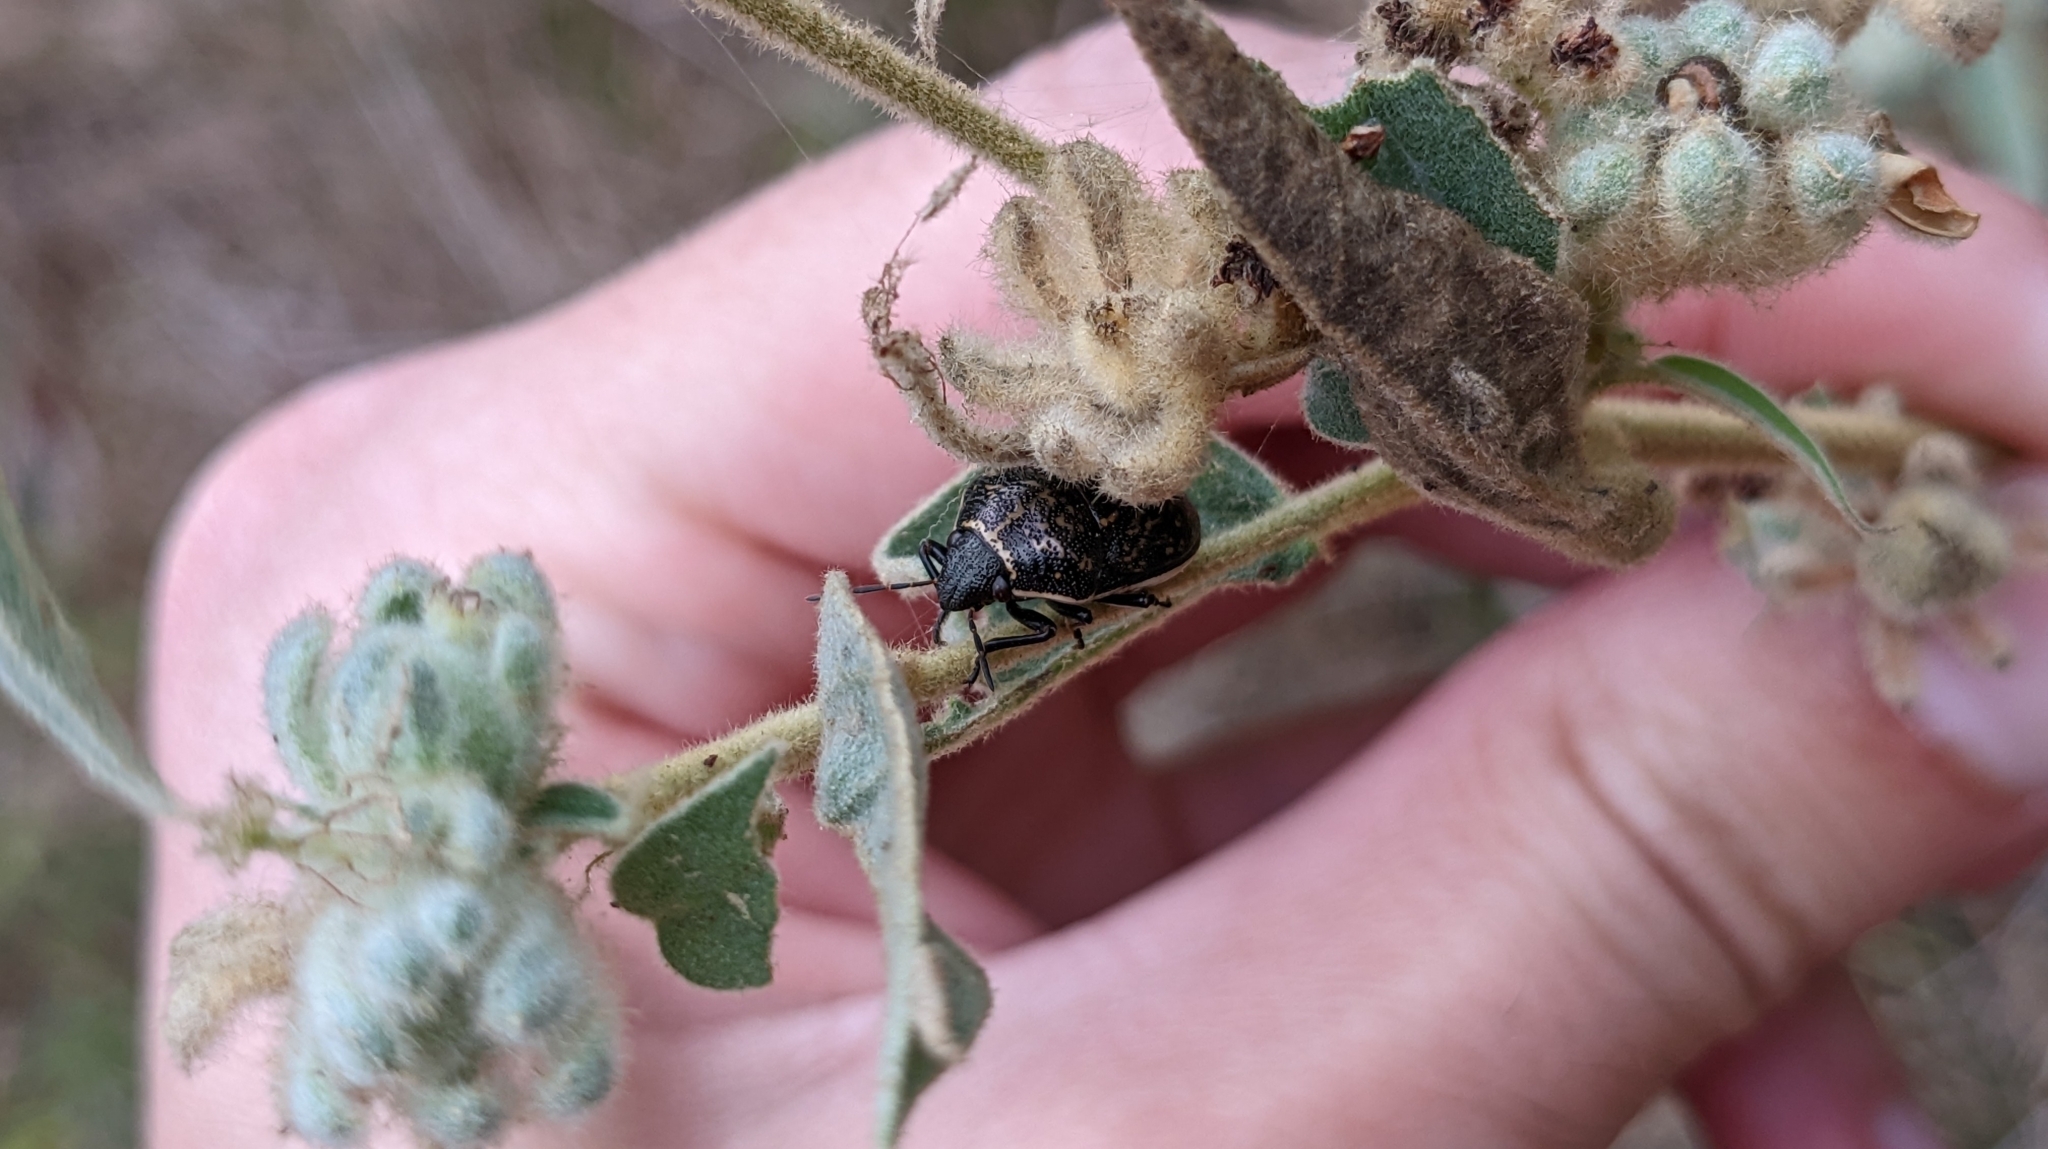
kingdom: Animalia
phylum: Arthropoda
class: Insecta
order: Hemiptera
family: Scutelleridae
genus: Orsilochides
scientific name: Orsilochides guttata
